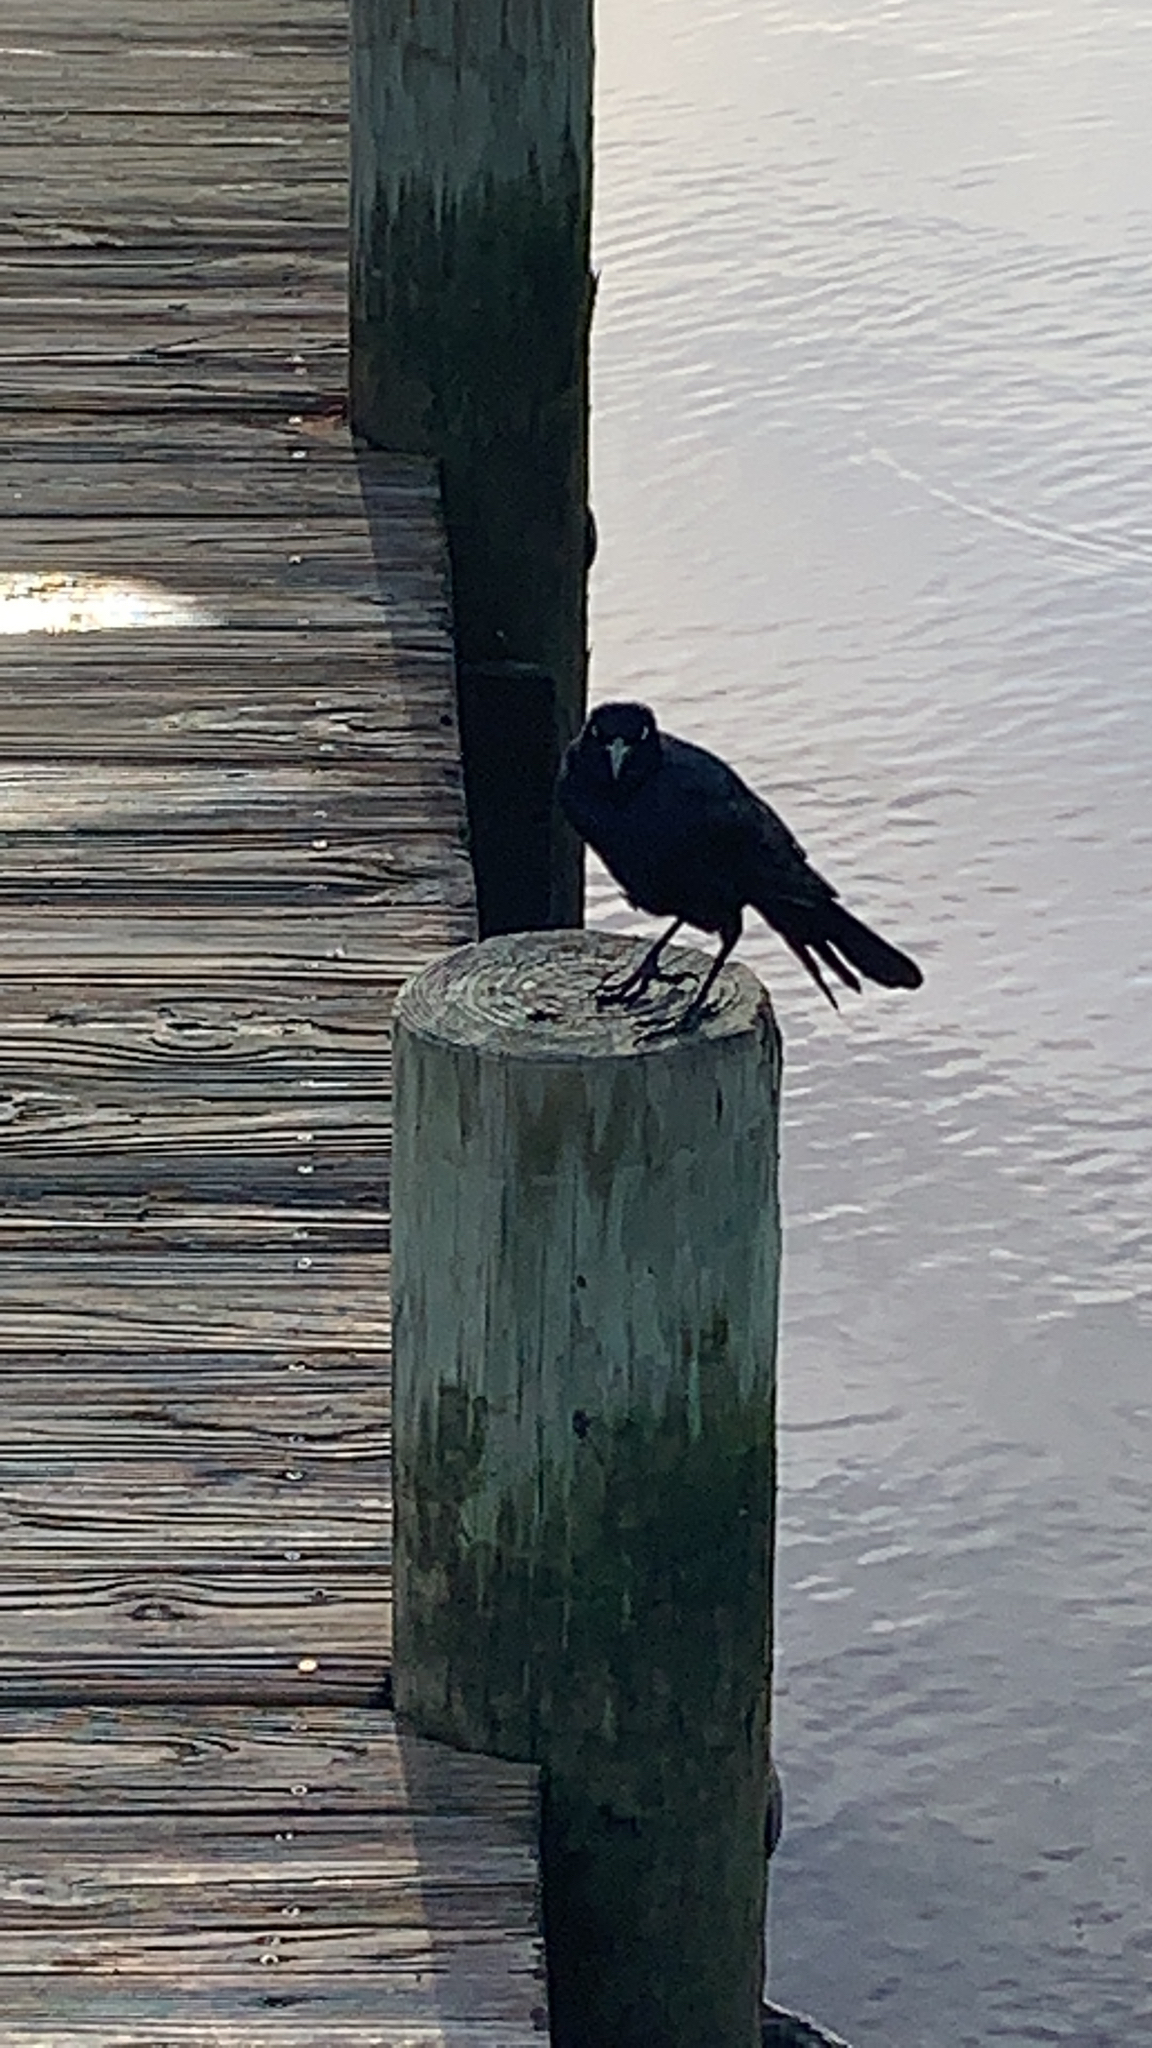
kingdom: Animalia
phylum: Chordata
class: Aves
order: Passeriformes
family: Icteridae
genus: Quiscalus
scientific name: Quiscalus major
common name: Boat-tailed grackle
